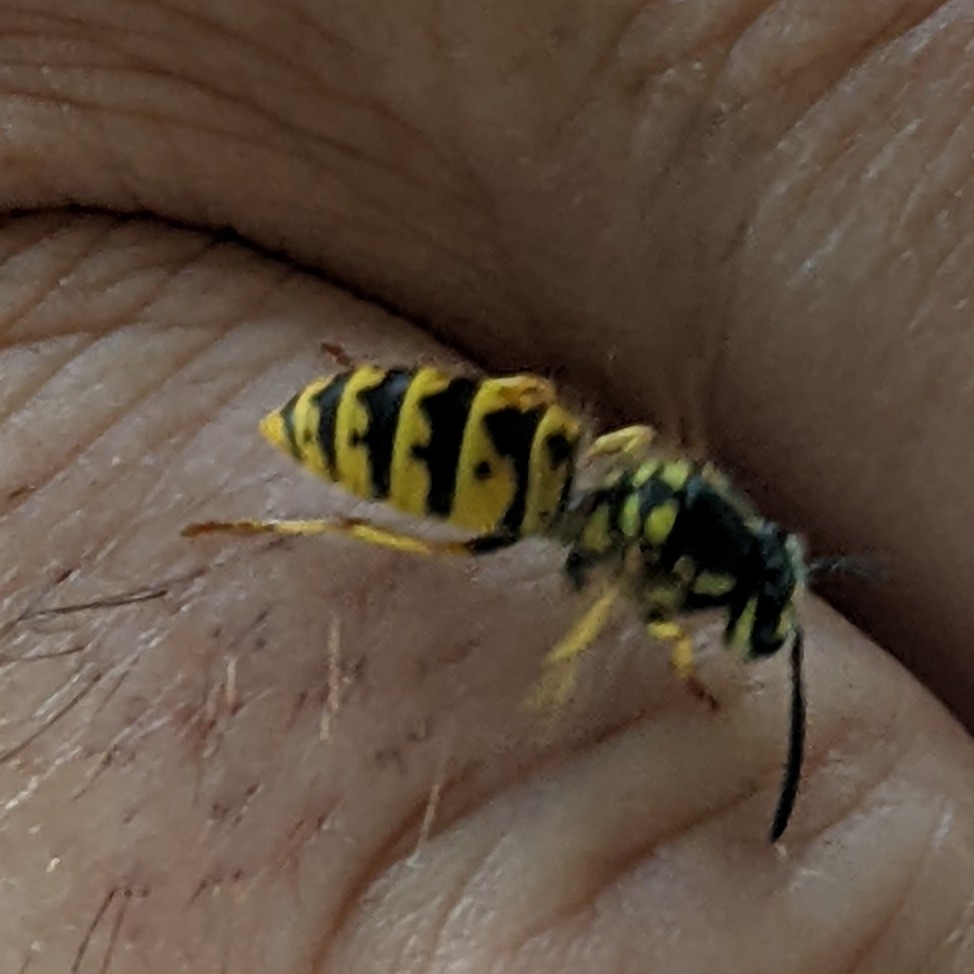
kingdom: Animalia
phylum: Arthropoda
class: Insecta
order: Hymenoptera
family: Vespidae
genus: Vespula
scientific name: Vespula germanica
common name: German wasp
